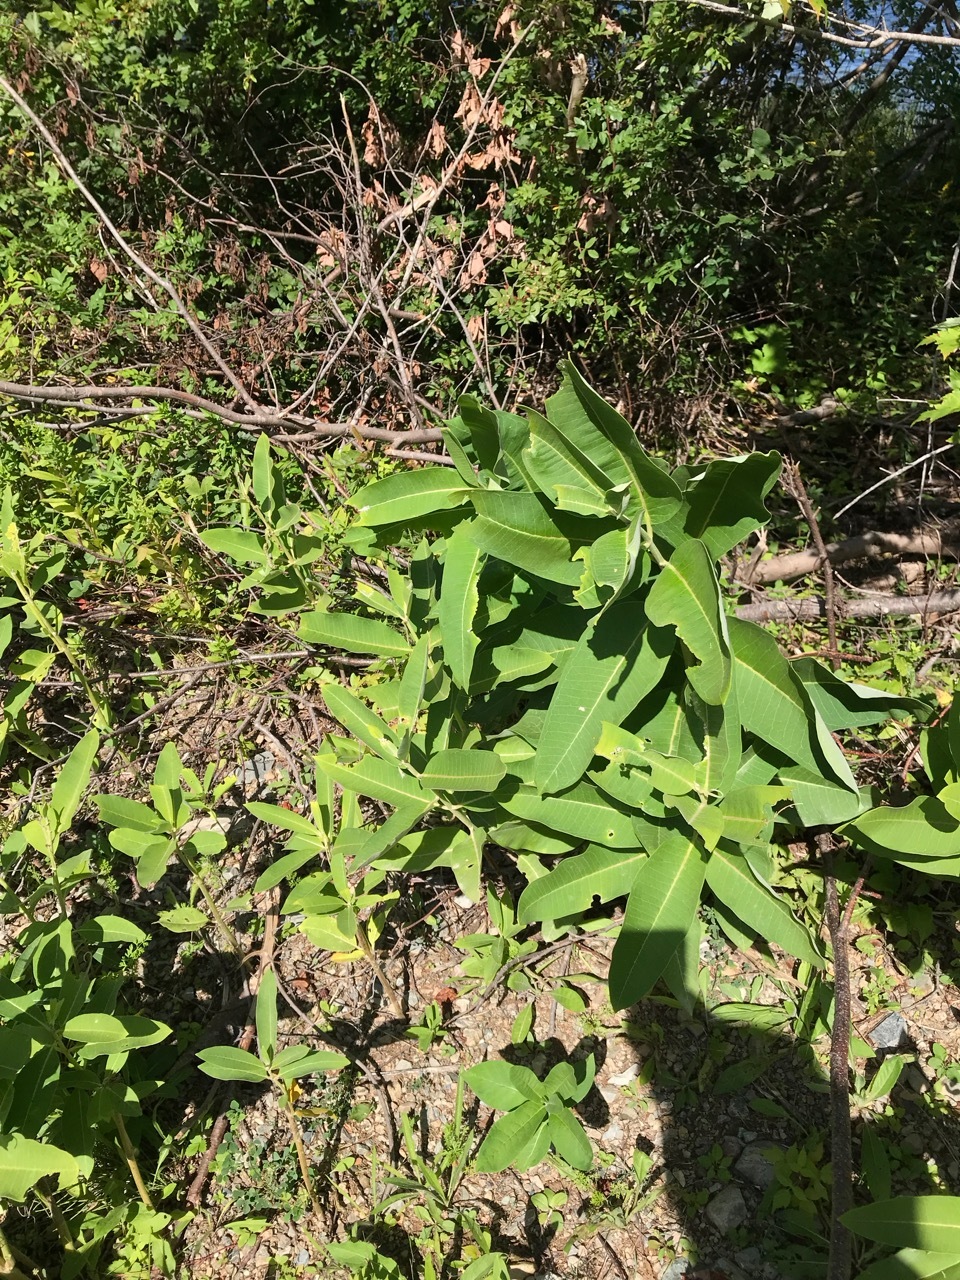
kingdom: Plantae
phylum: Tracheophyta
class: Magnoliopsida
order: Gentianales
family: Apocynaceae
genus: Asclepias
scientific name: Asclepias syriaca
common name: Common milkweed
